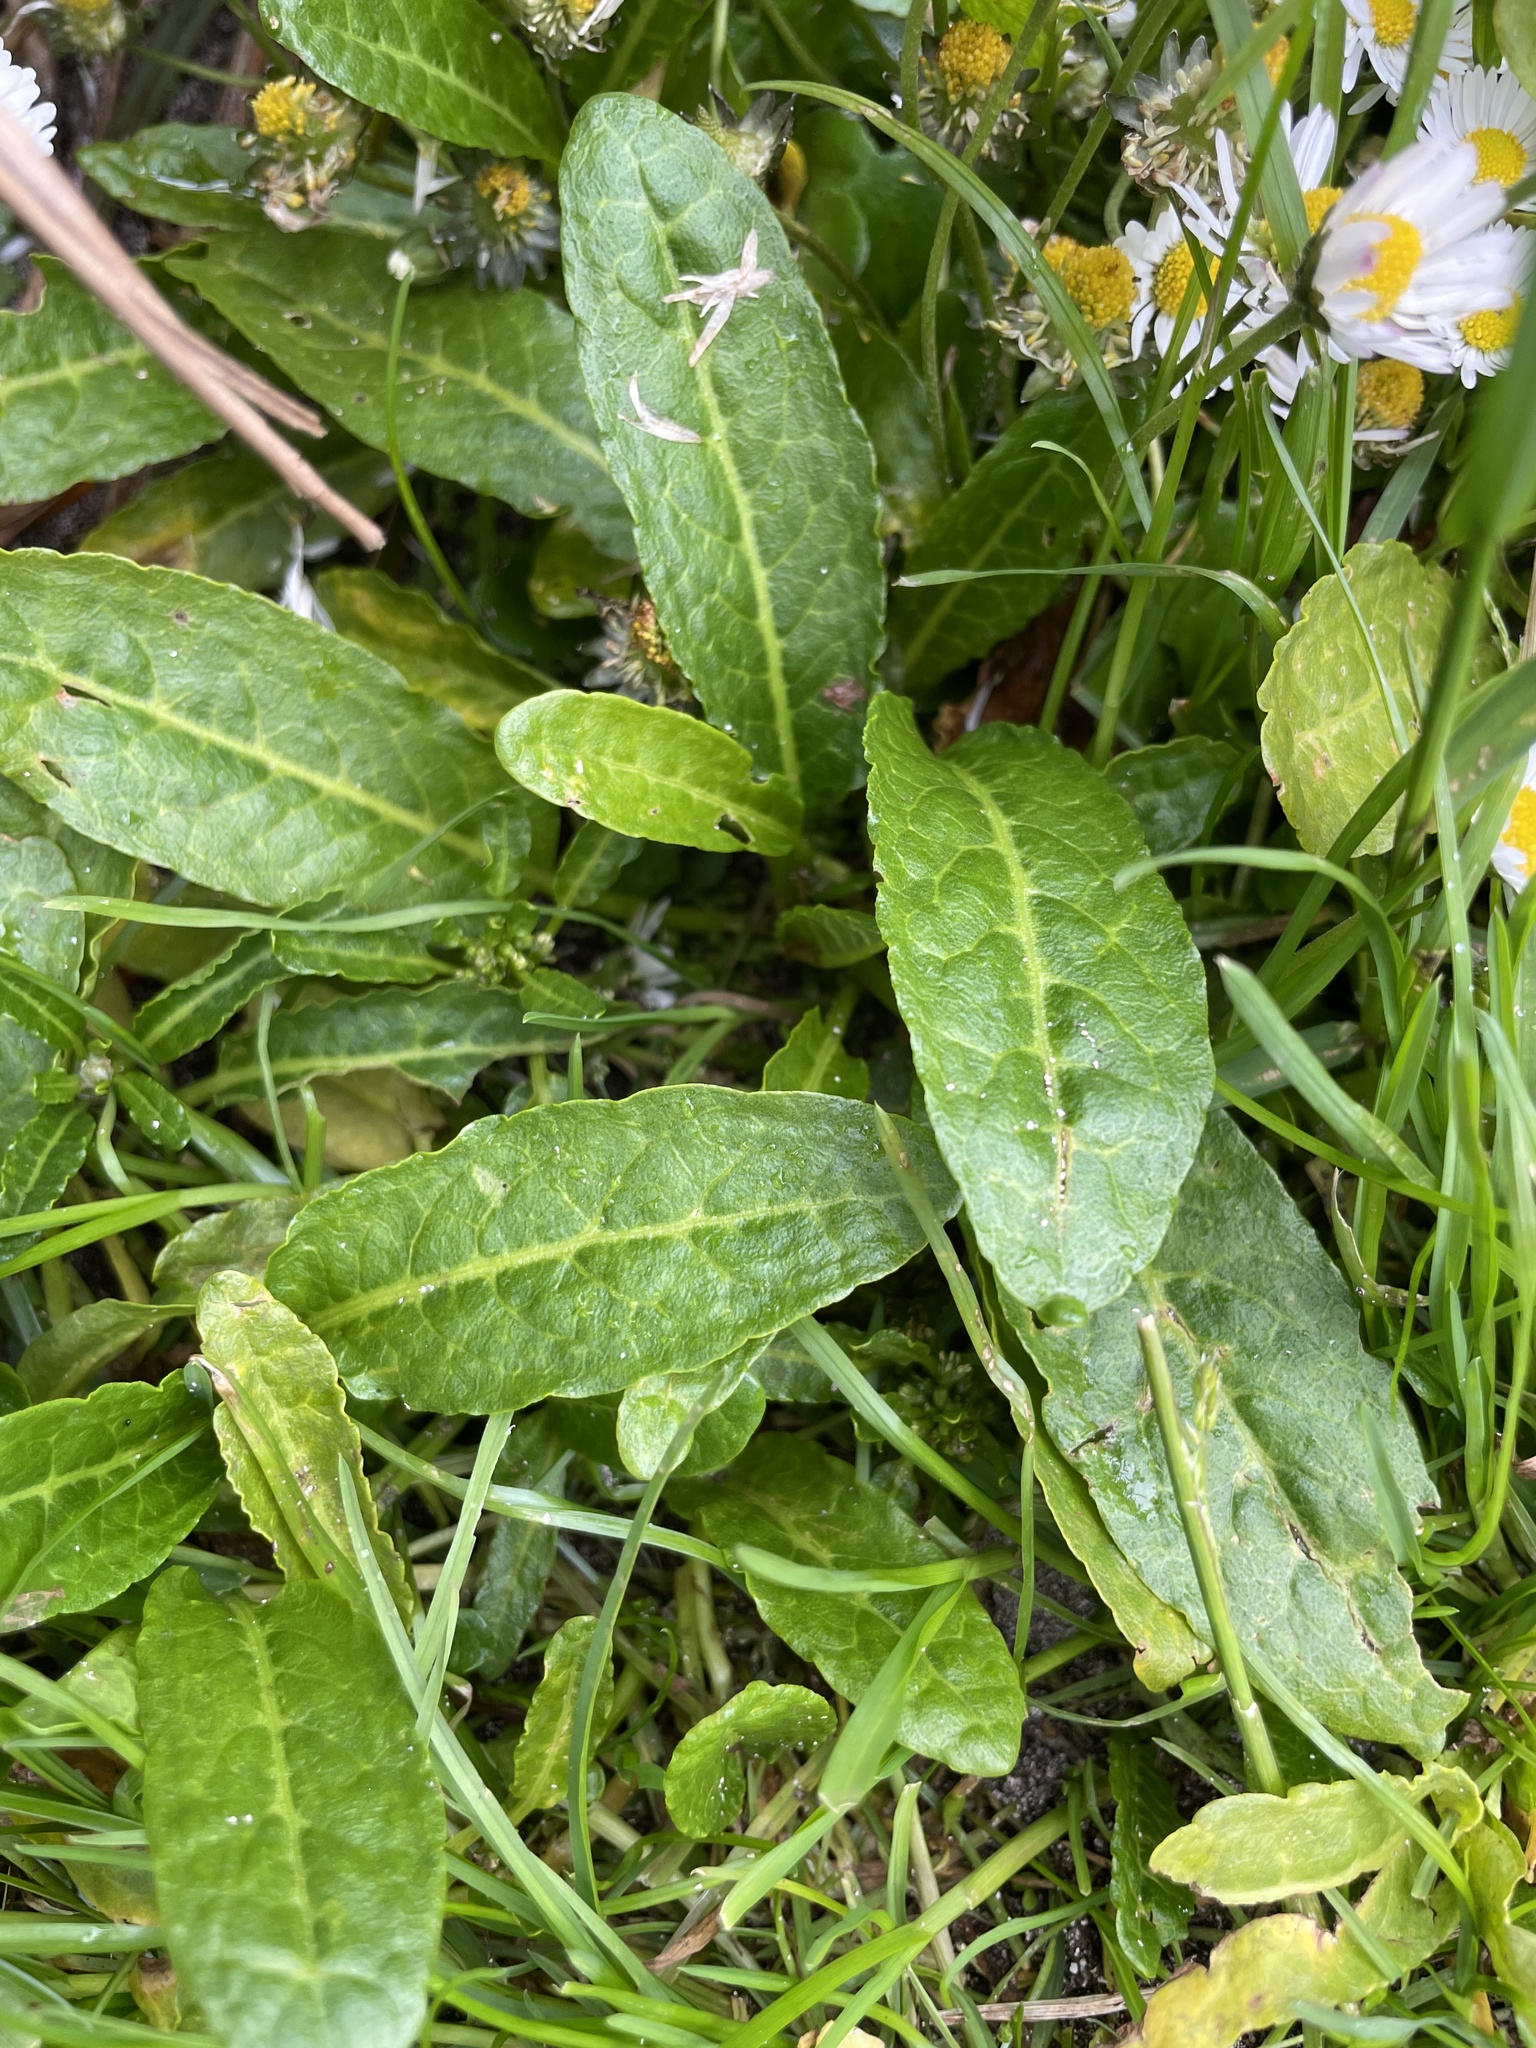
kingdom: Plantae
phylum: Tracheophyta
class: Magnoliopsida
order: Caryophyllales
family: Polygonaceae
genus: Rumex
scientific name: Rumex neglectus
